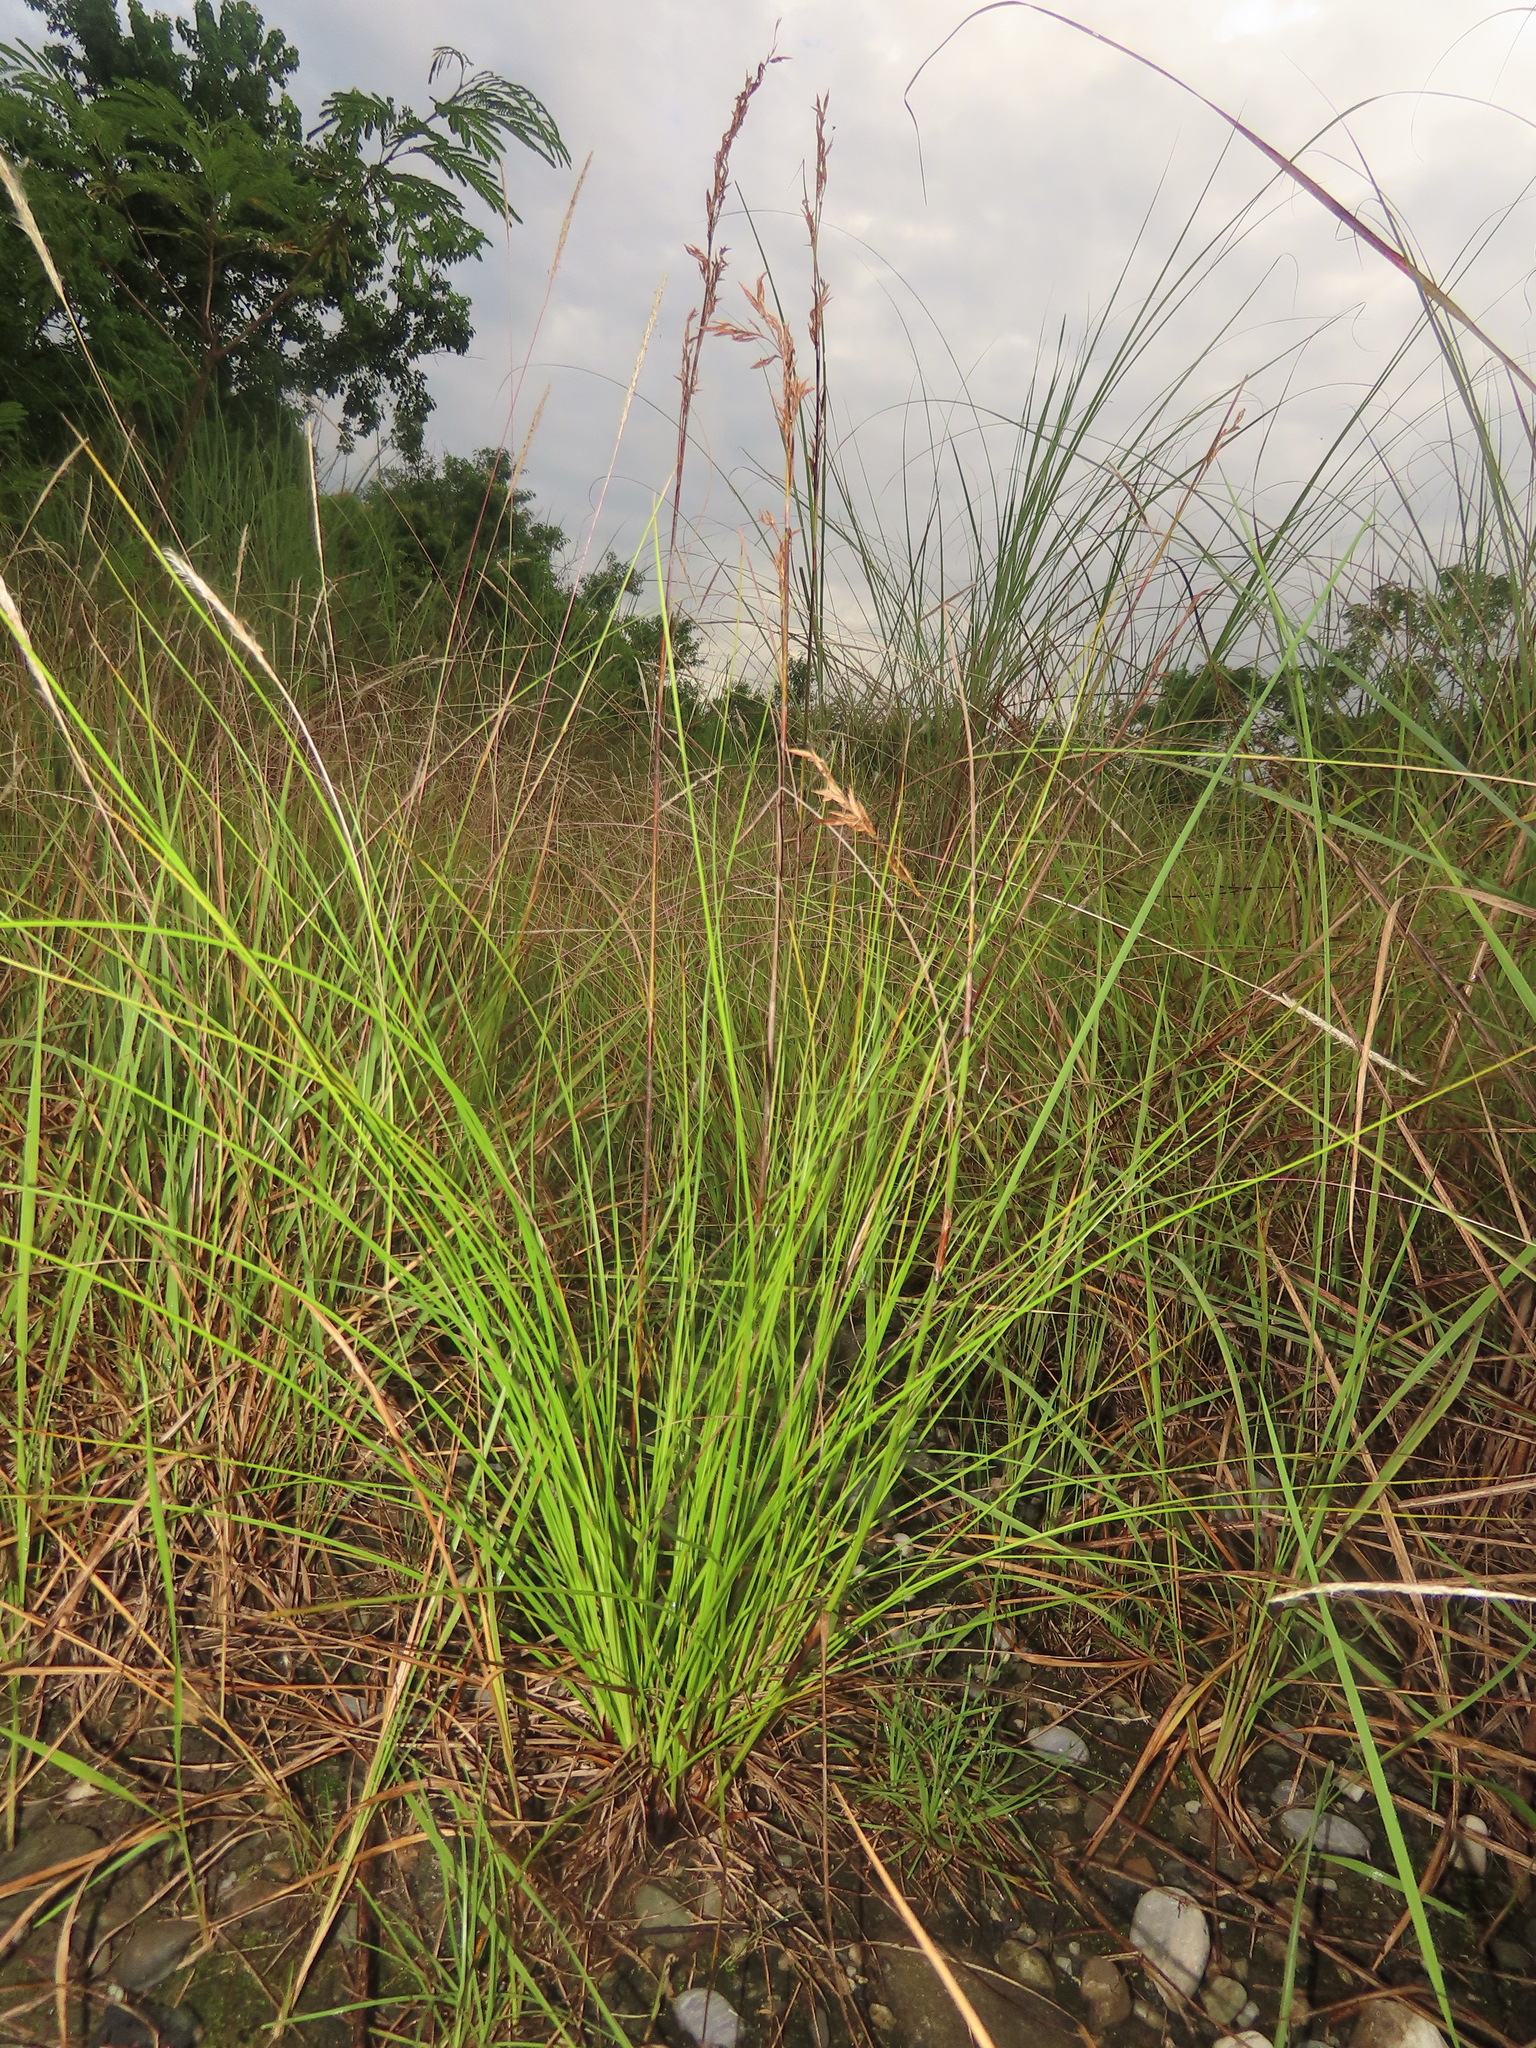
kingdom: Plantae
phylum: Tracheophyta
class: Liliopsida
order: Poales
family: Cyperaceae
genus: Schoenus
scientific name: Schoenus falcatus
